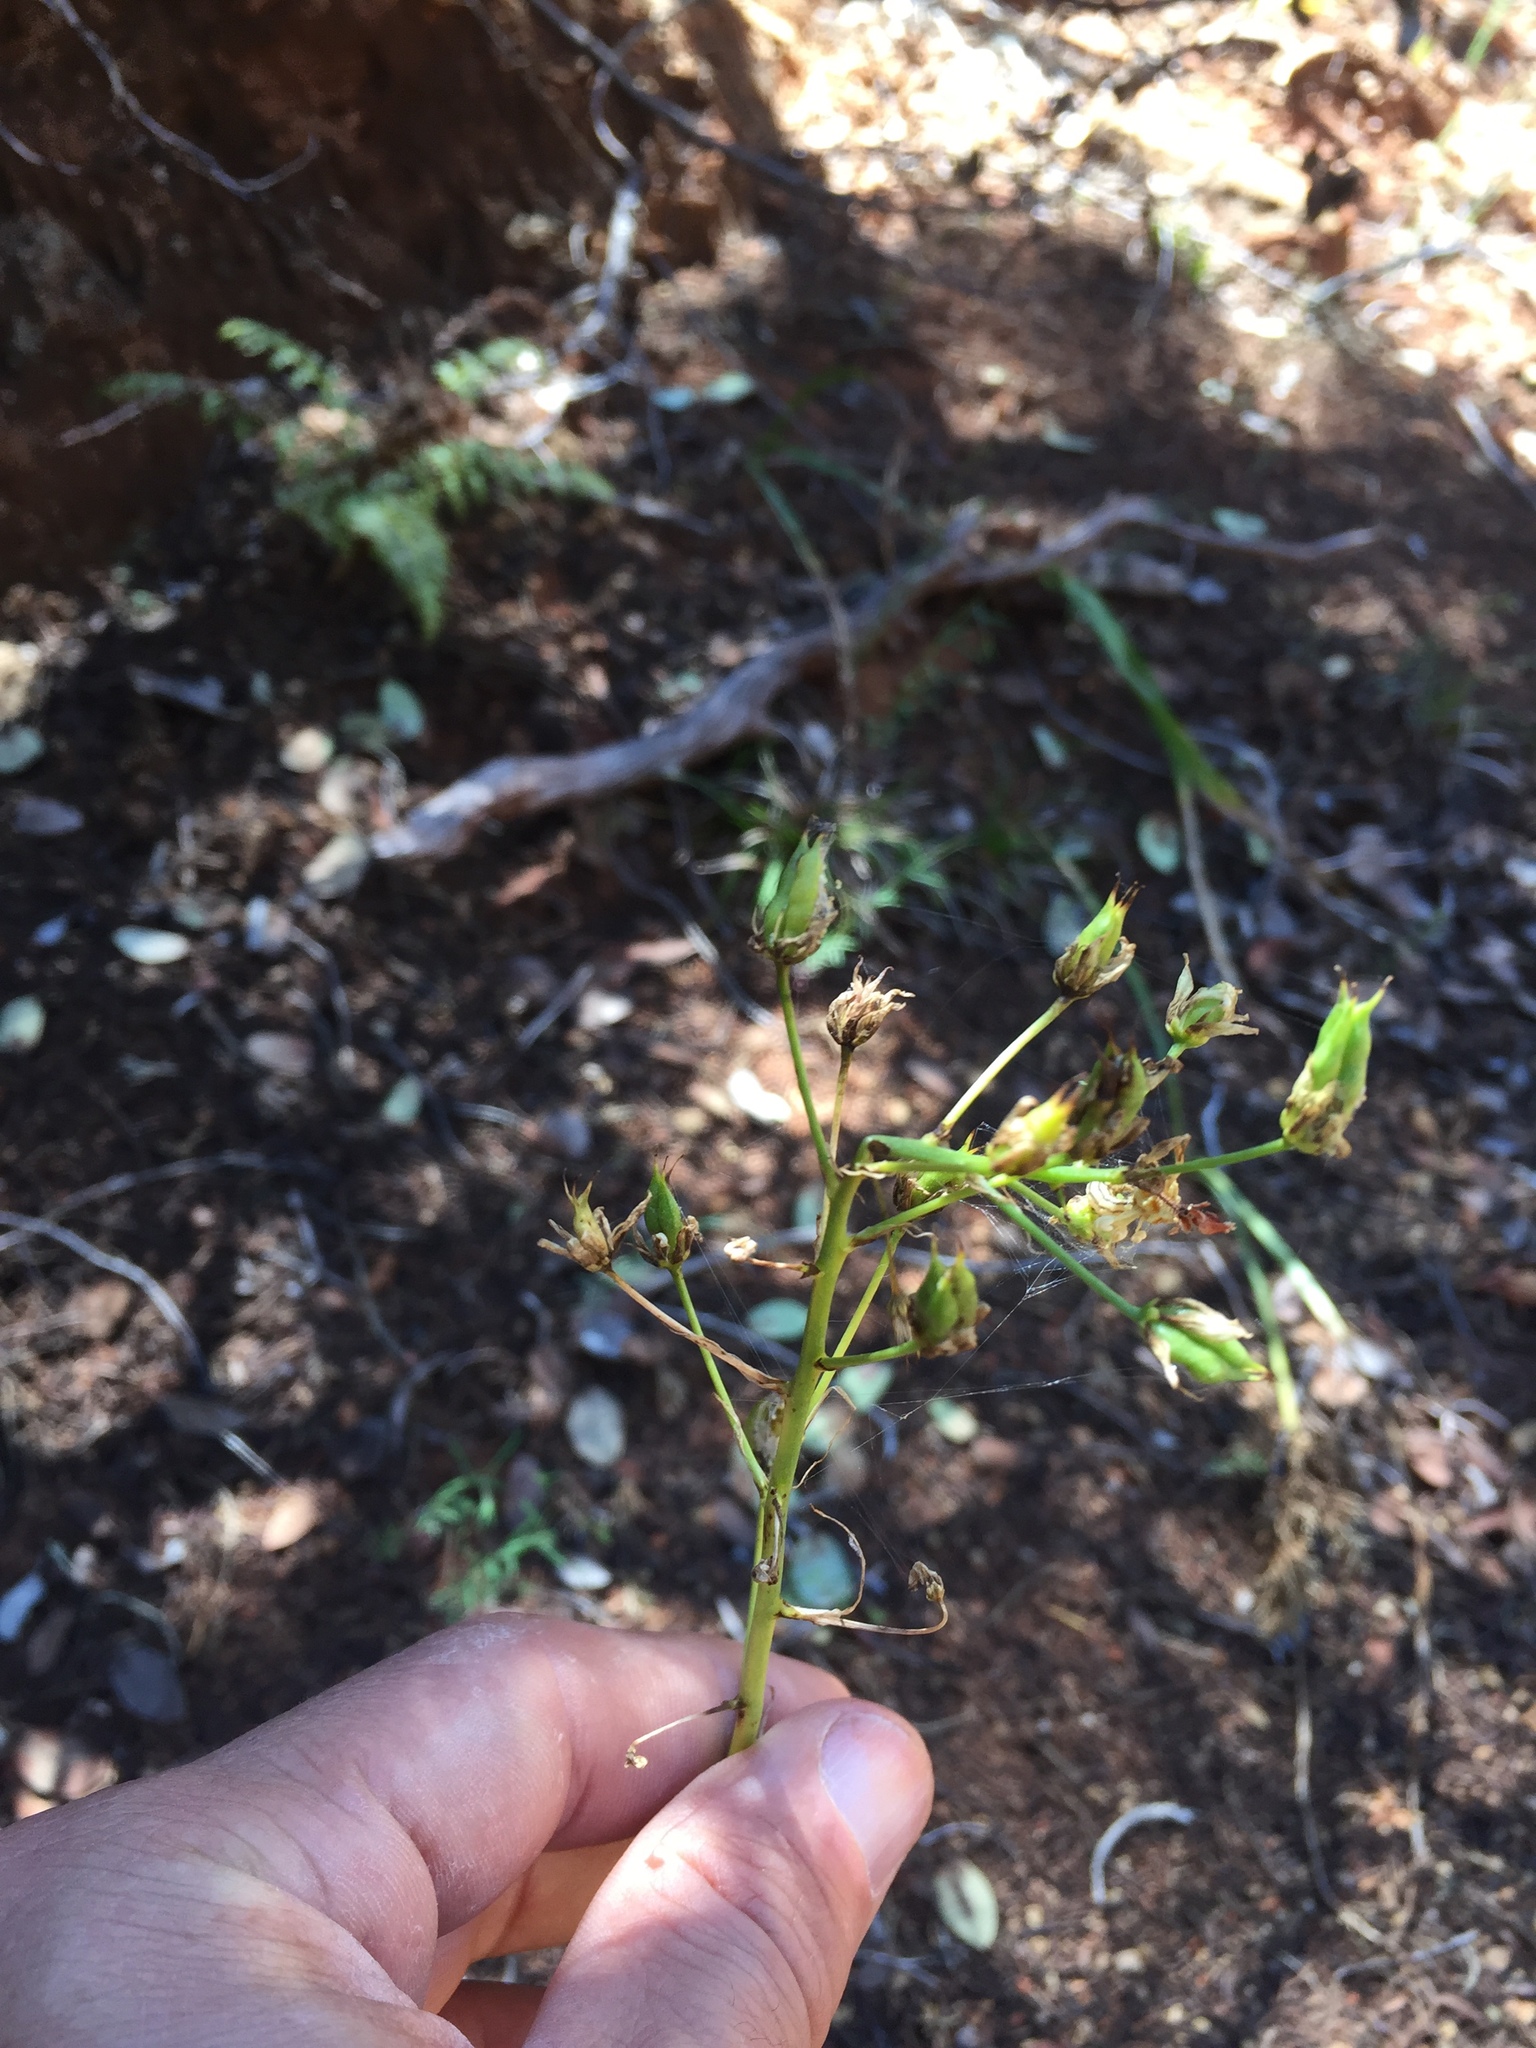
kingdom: Plantae
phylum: Tracheophyta
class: Liliopsida
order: Liliales
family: Melanthiaceae
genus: Toxicoscordion
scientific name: Toxicoscordion fremontii
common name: Fremont's death camas
